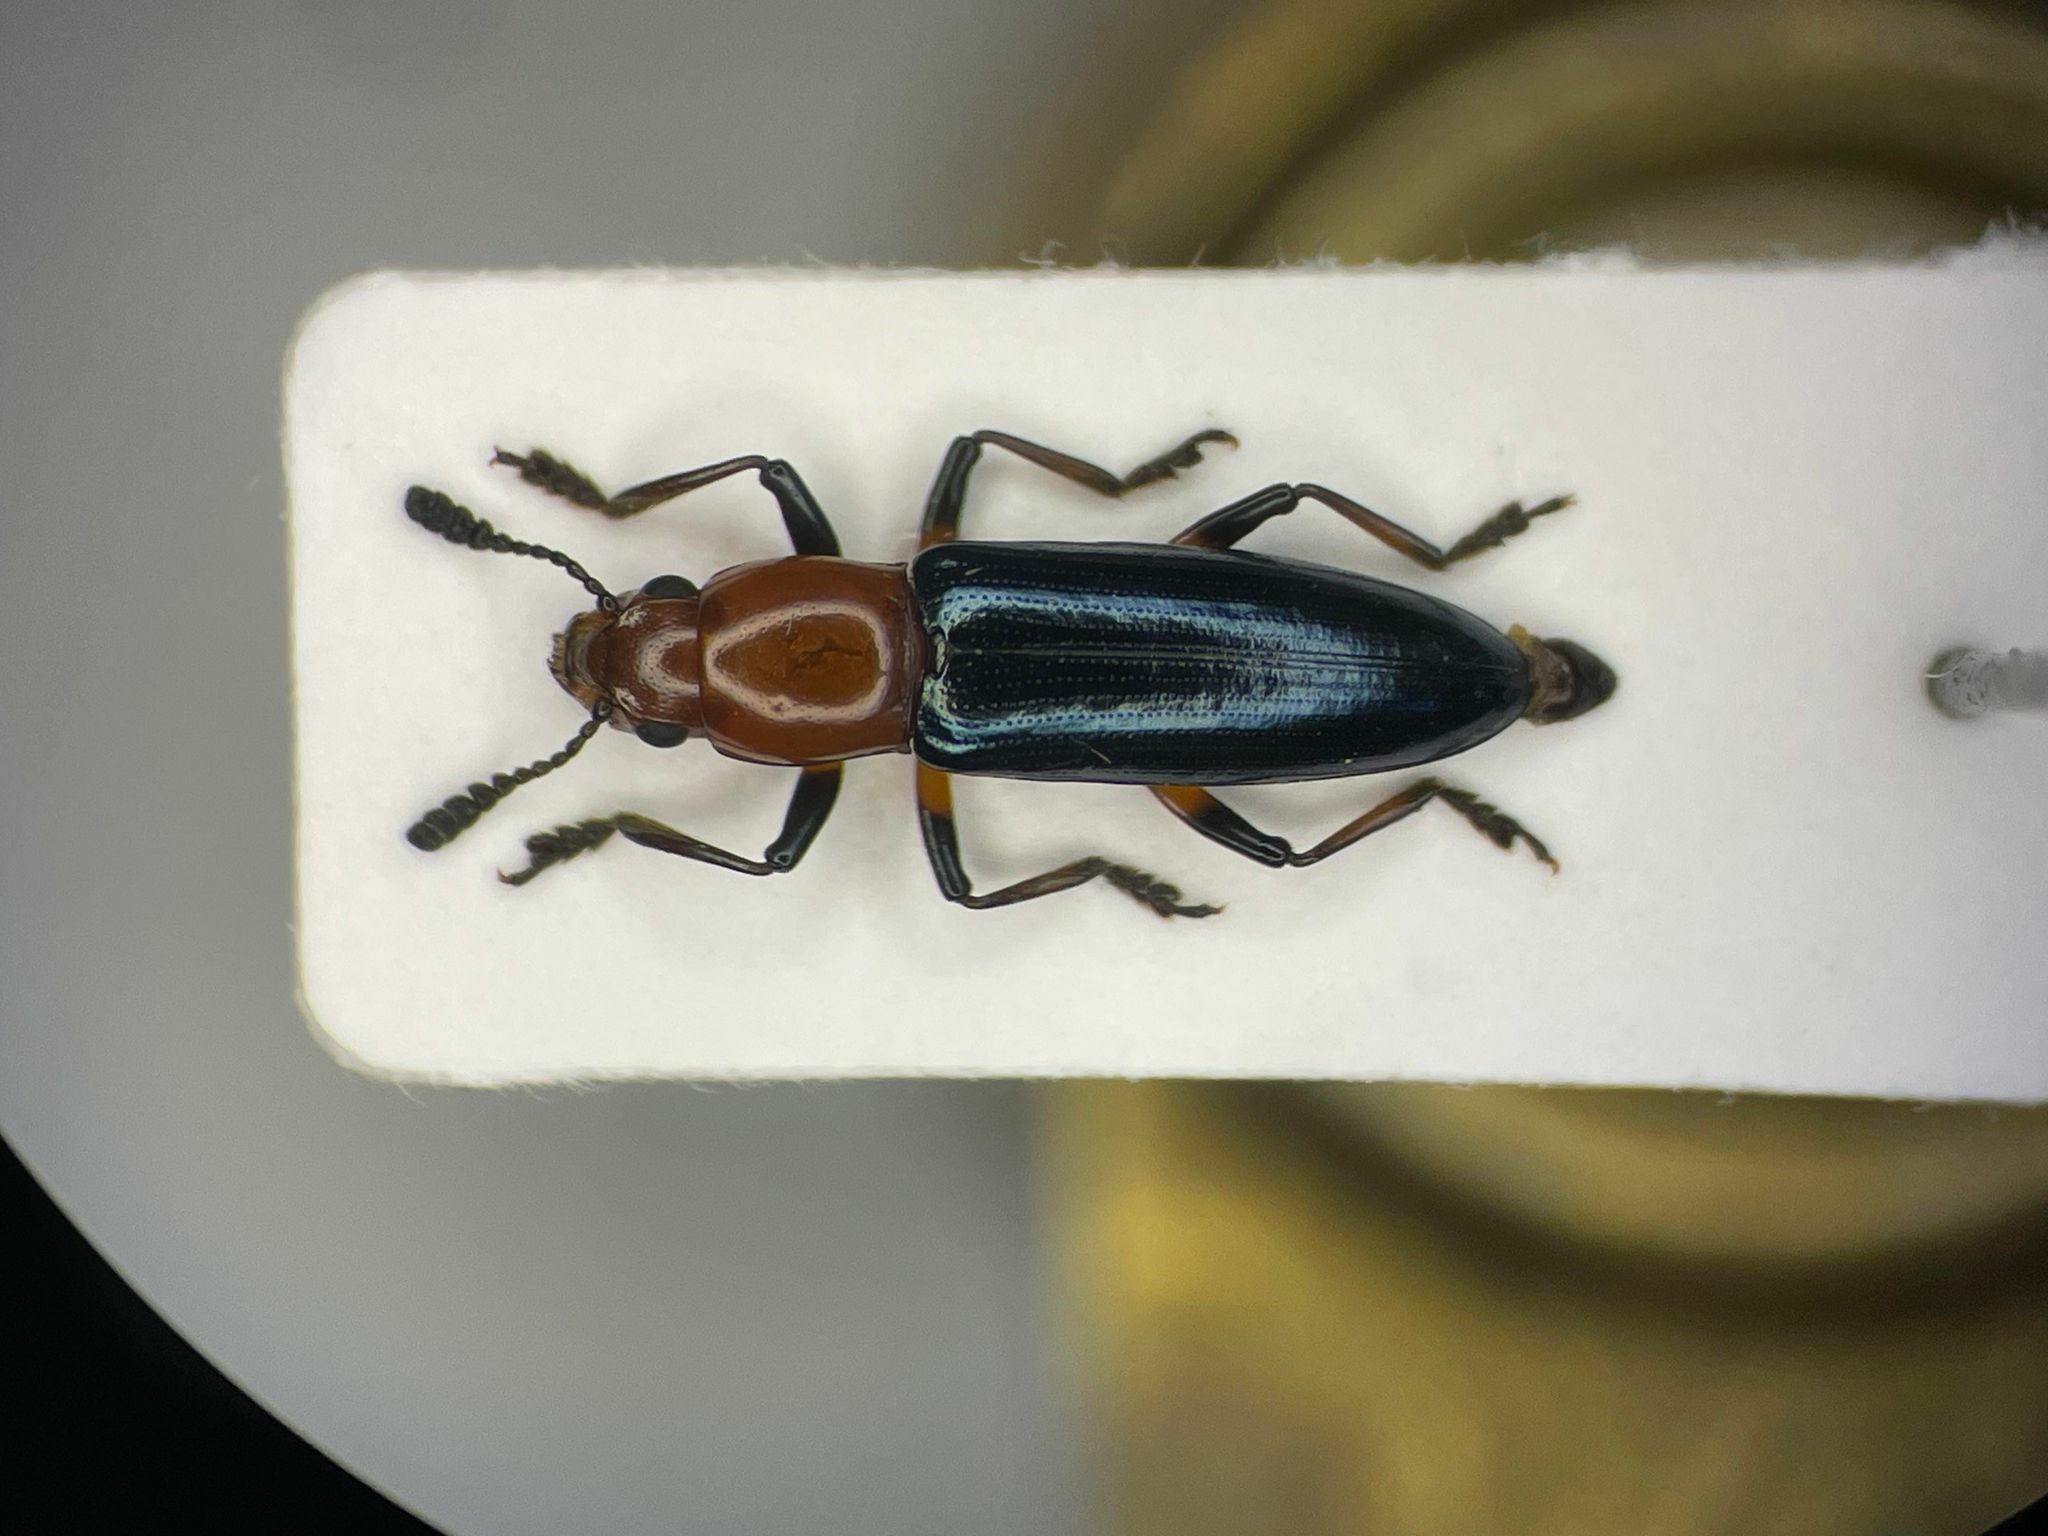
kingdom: Animalia
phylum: Arthropoda
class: Insecta
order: Coleoptera
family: Erotylidae
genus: Languria
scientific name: Languria mozardi
